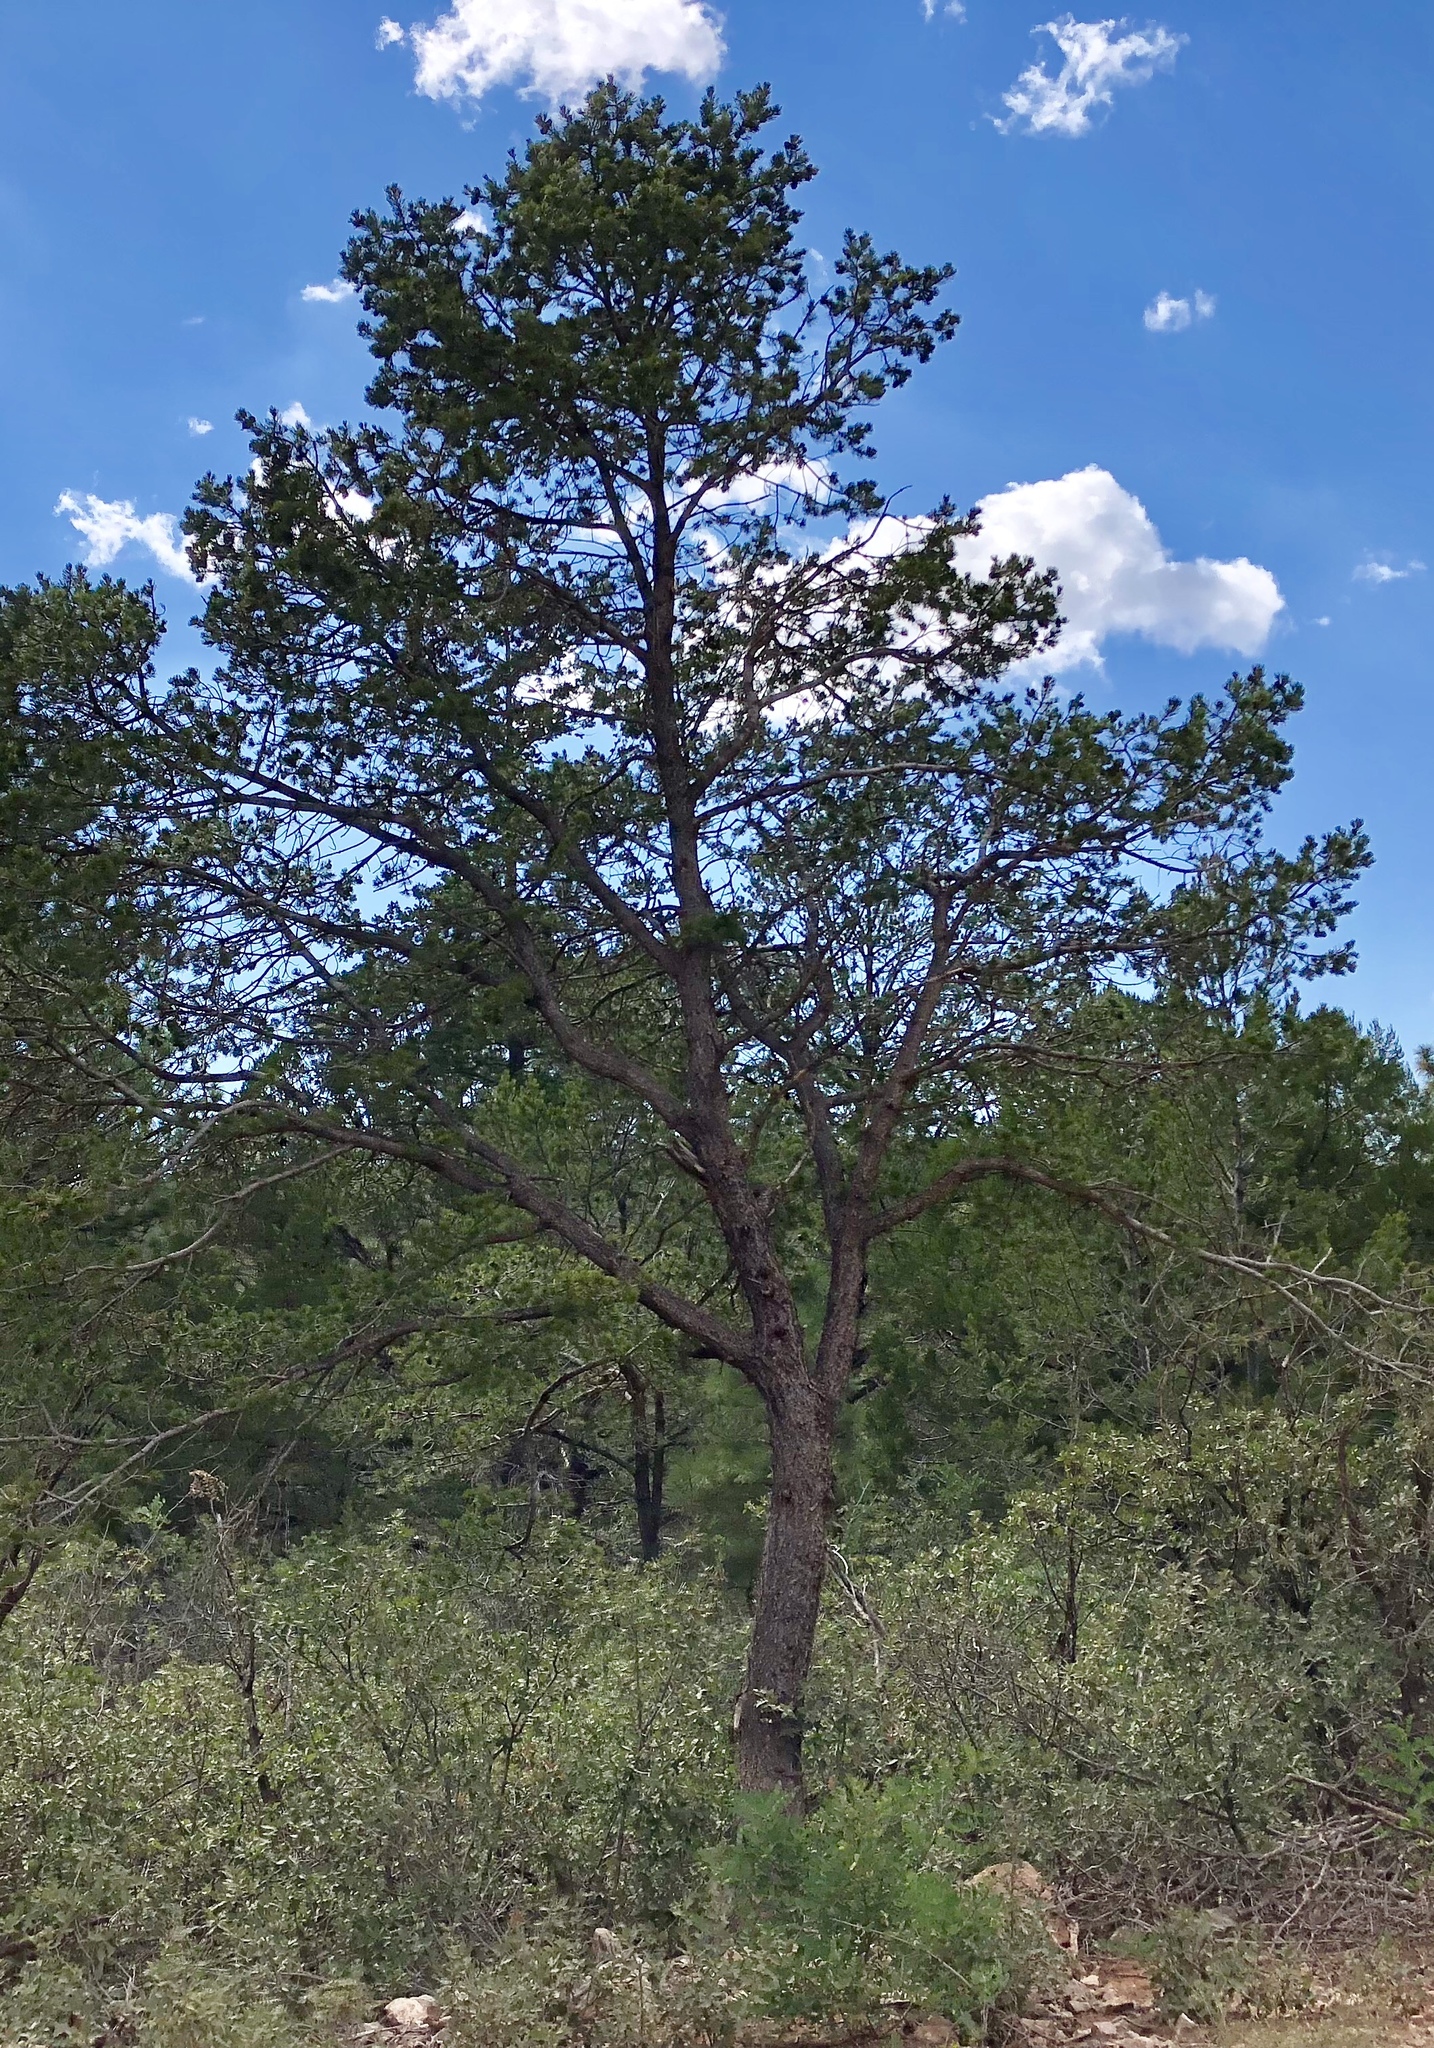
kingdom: Plantae
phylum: Tracheophyta
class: Pinopsida
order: Pinales
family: Pinaceae
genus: Pinus
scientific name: Pinus edulis
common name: Colorado pinyon
